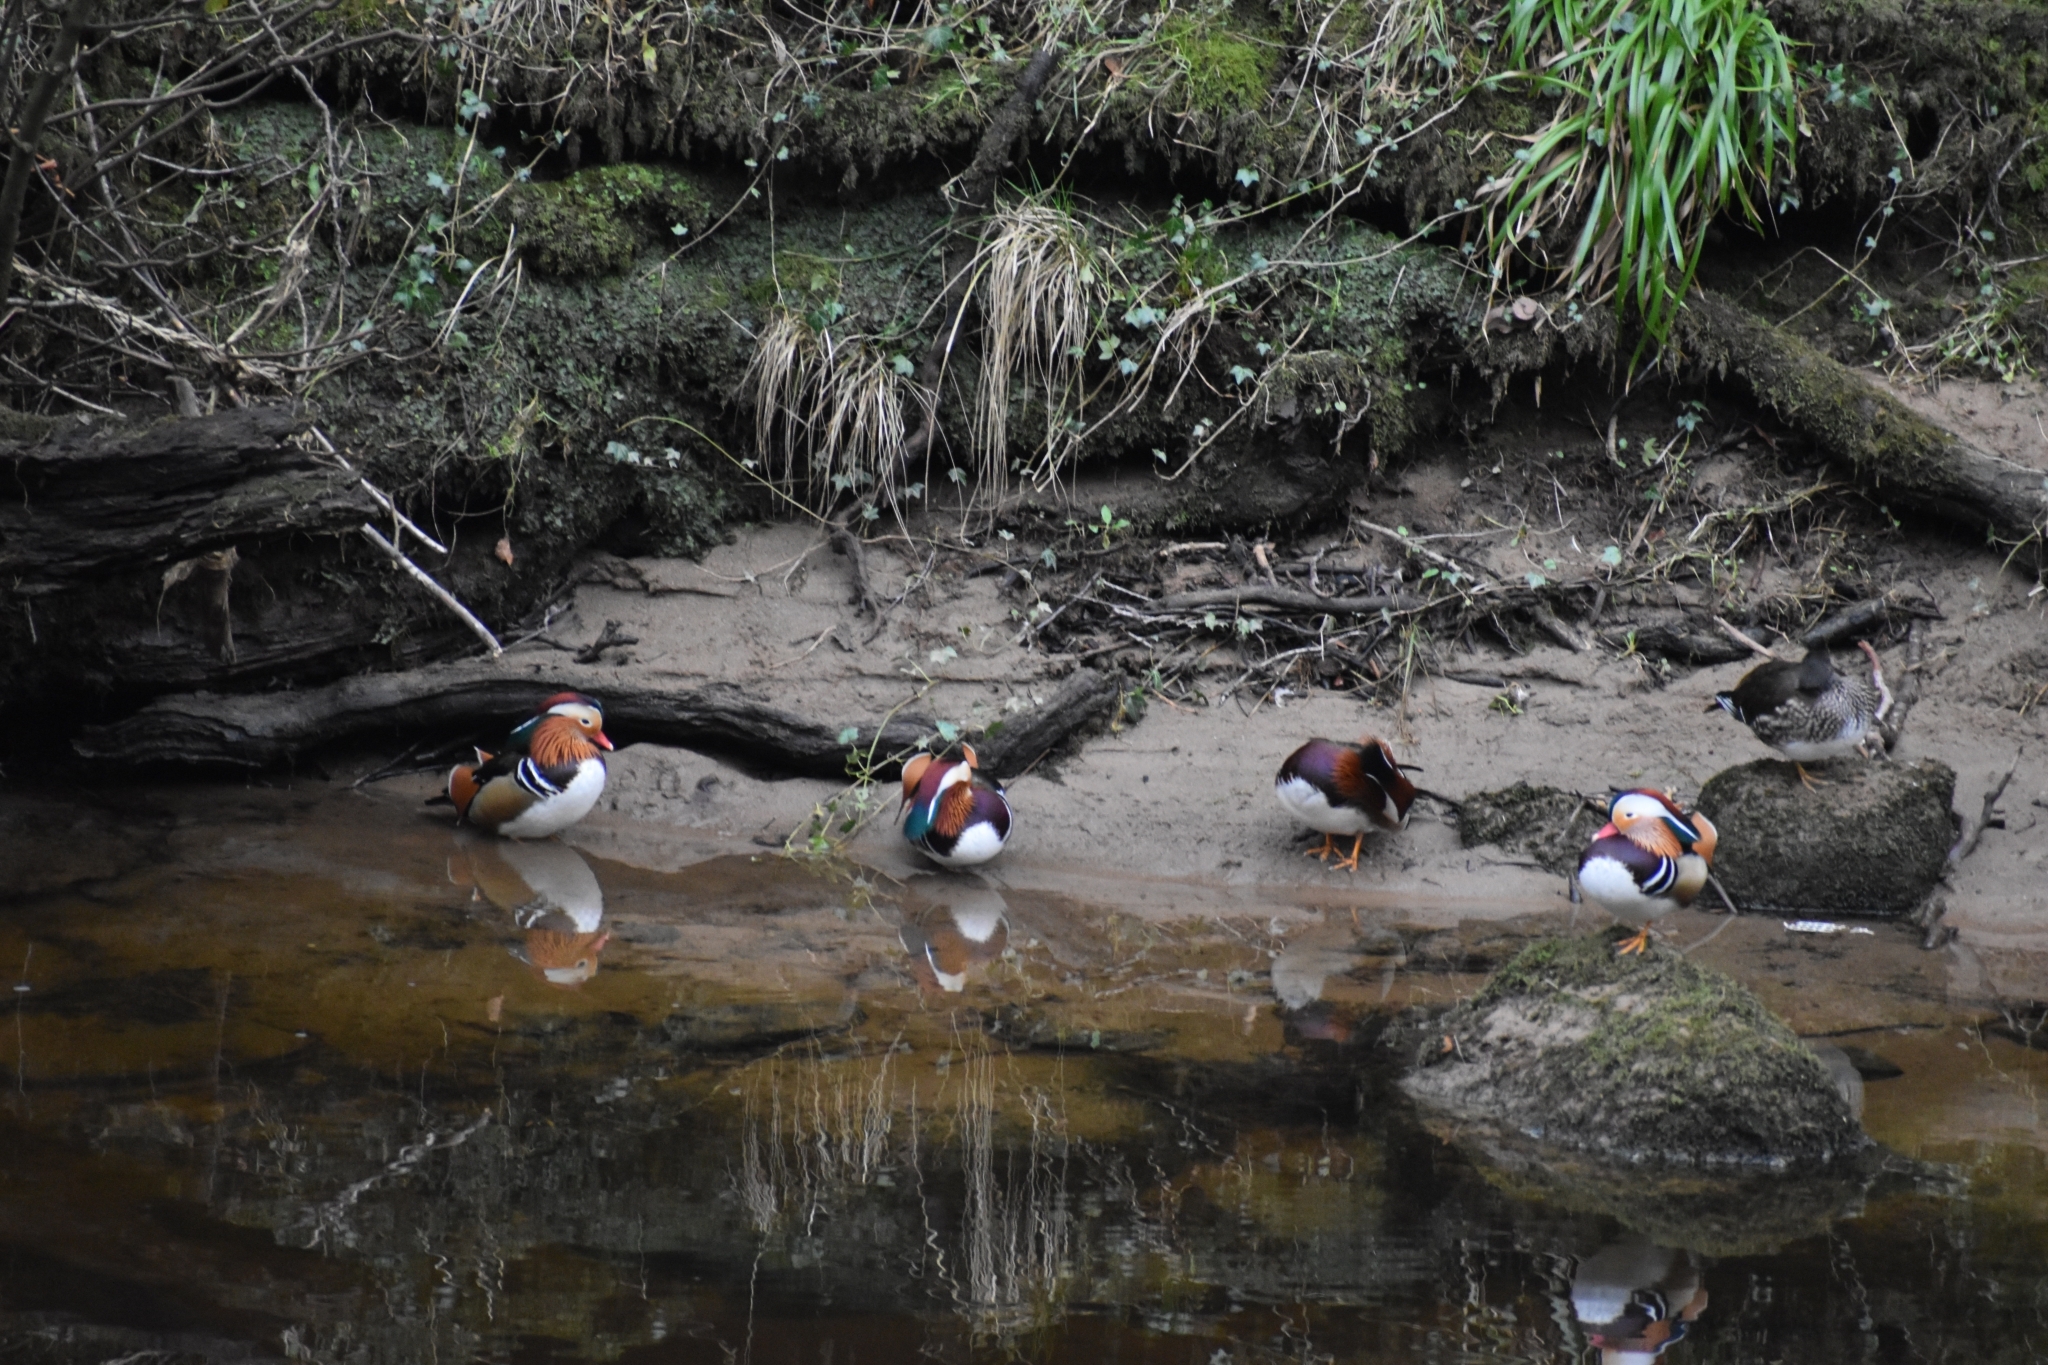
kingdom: Animalia
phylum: Chordata
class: Aves
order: Anseriformes
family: Anatidae
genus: Aix
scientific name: Aix galericulata
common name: Mandarin duck
